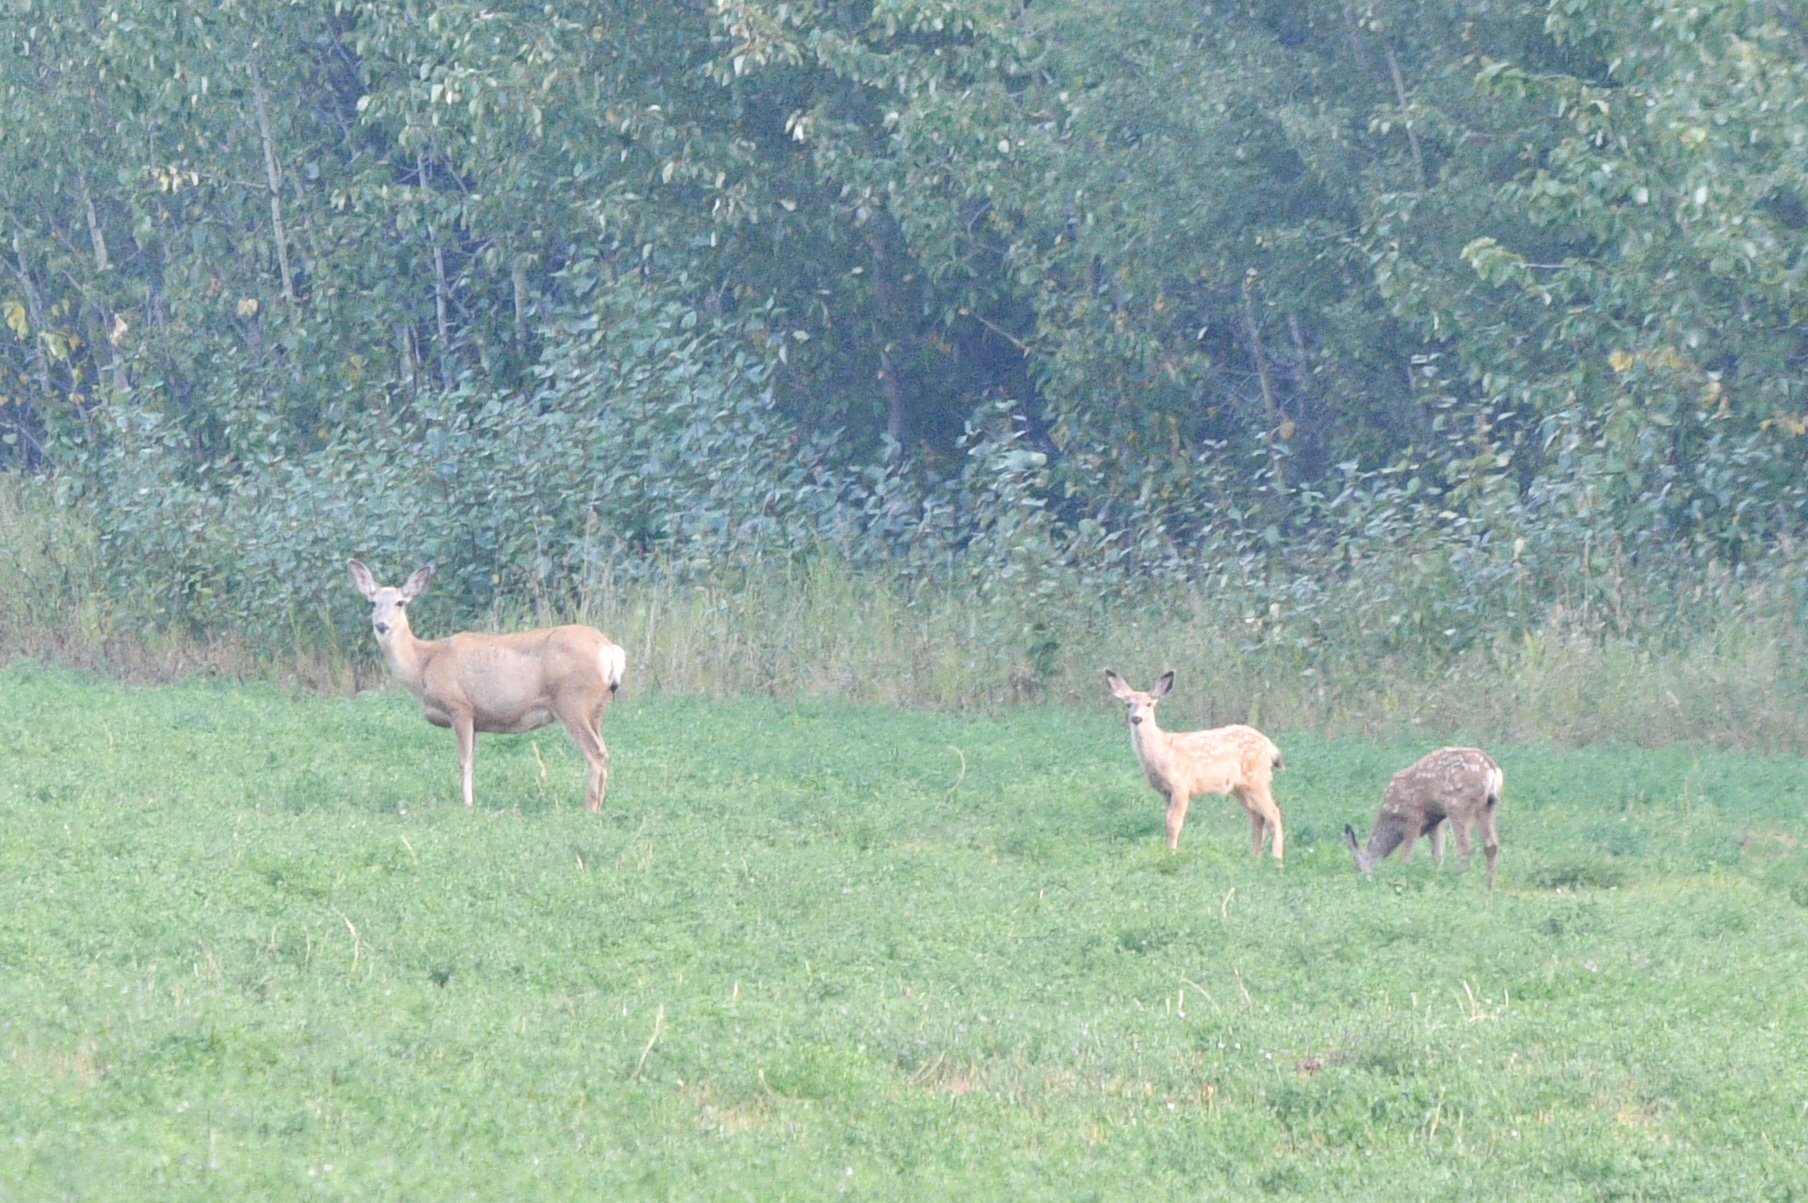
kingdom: Animalia
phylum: Chordata
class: Mammalia
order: Artiodactyla
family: Cervidae
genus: Odocoileus
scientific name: Odocoileus hemionus
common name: Mule deer
